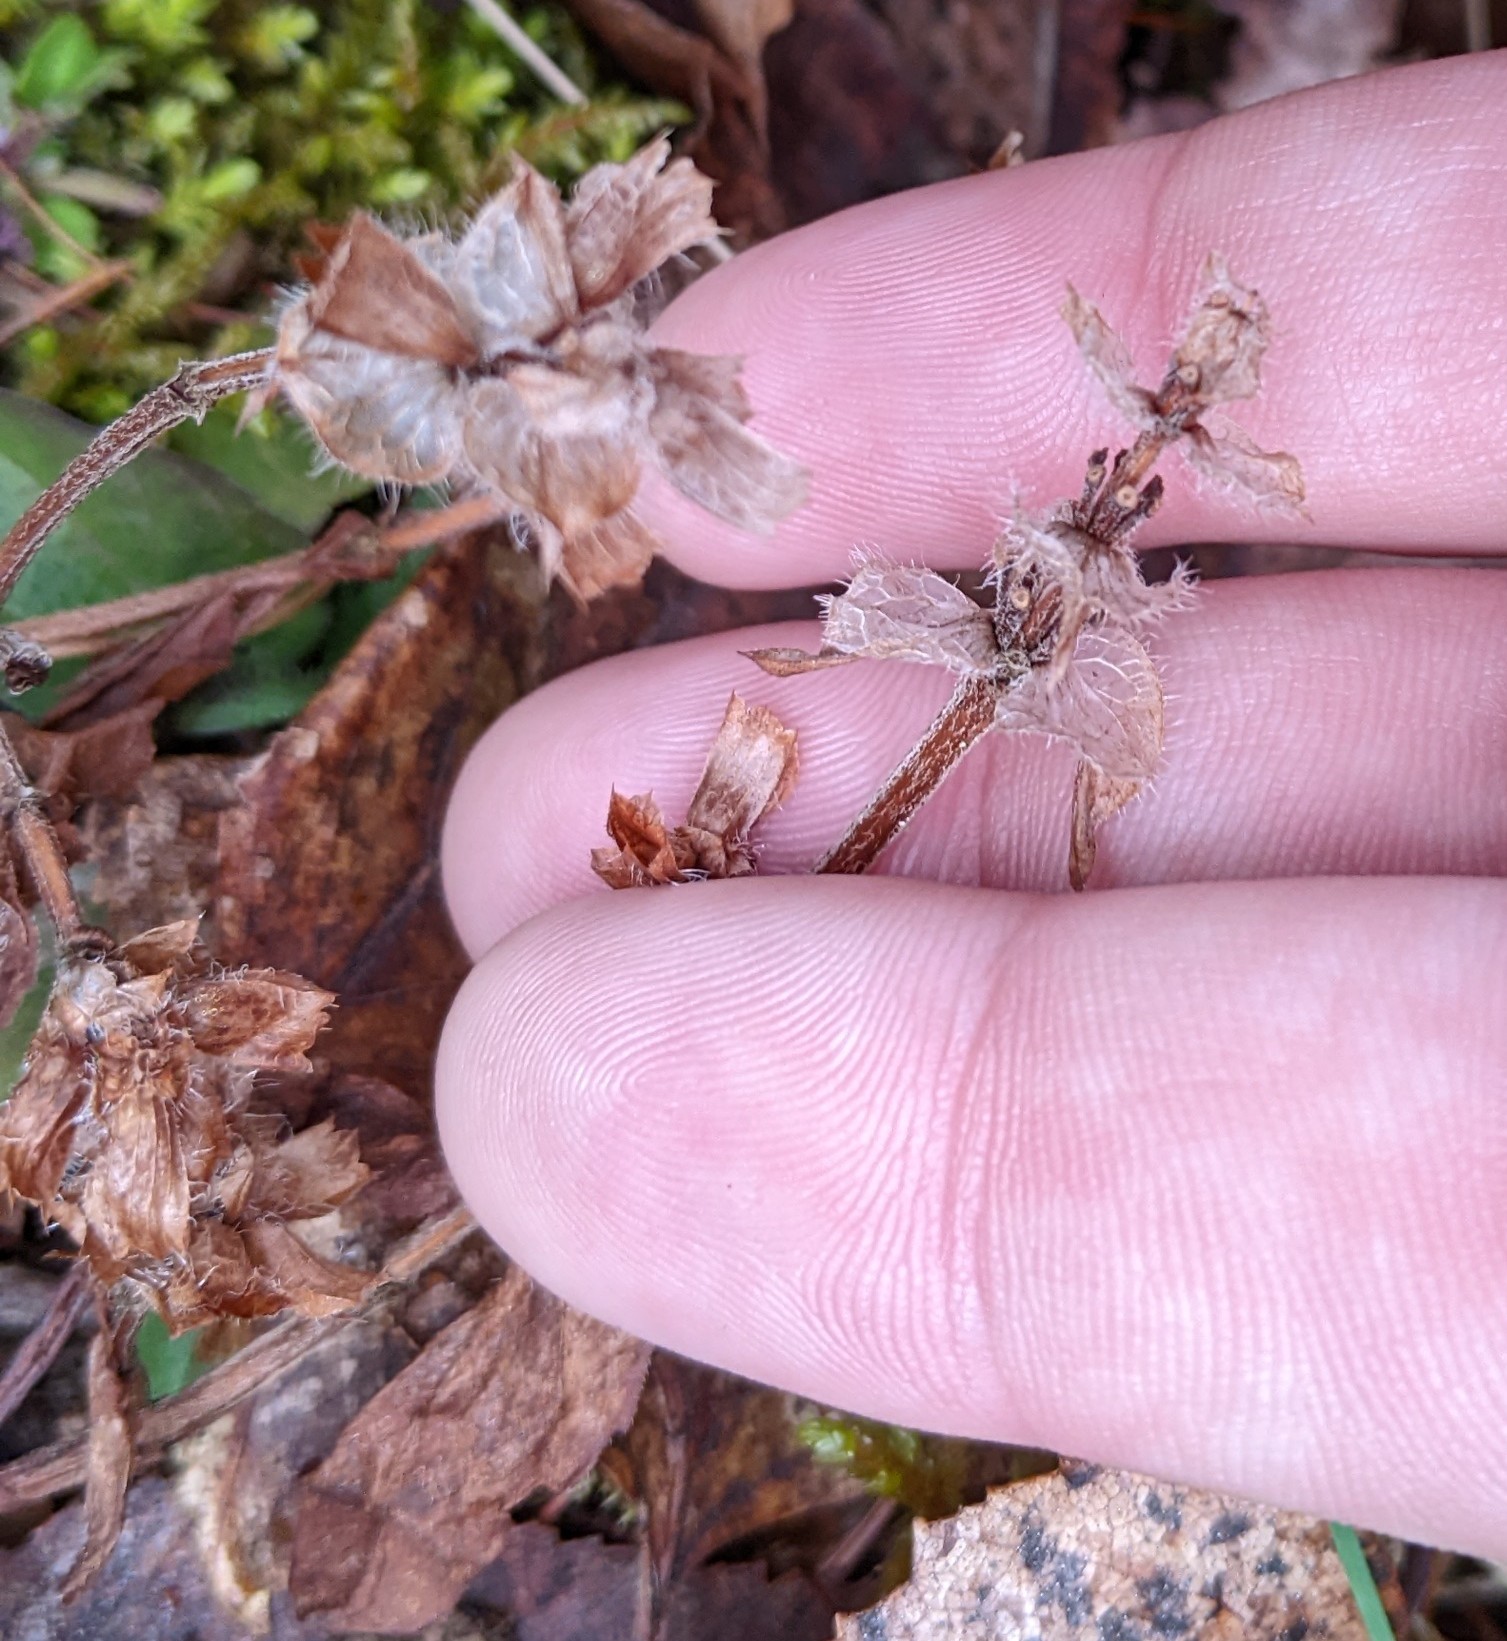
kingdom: Plantae
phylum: Tracheophyta
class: Magnoliopsida
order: Lamiales
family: Lamiaceae
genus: Prunella
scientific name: Prunella vulgaris
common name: Heal-all
